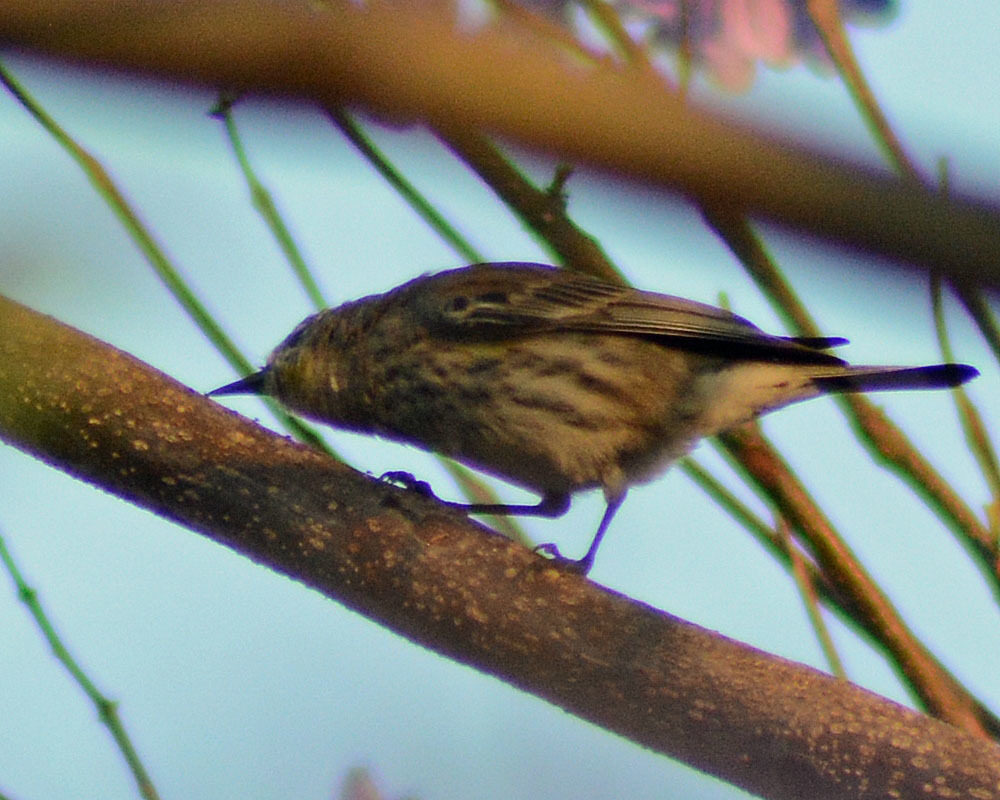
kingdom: Animalia
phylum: Chordata
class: Aves
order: Passeriformes
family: Parulidae
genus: Setophaga
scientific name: Setophaga coronata
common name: Myrtle warbler
